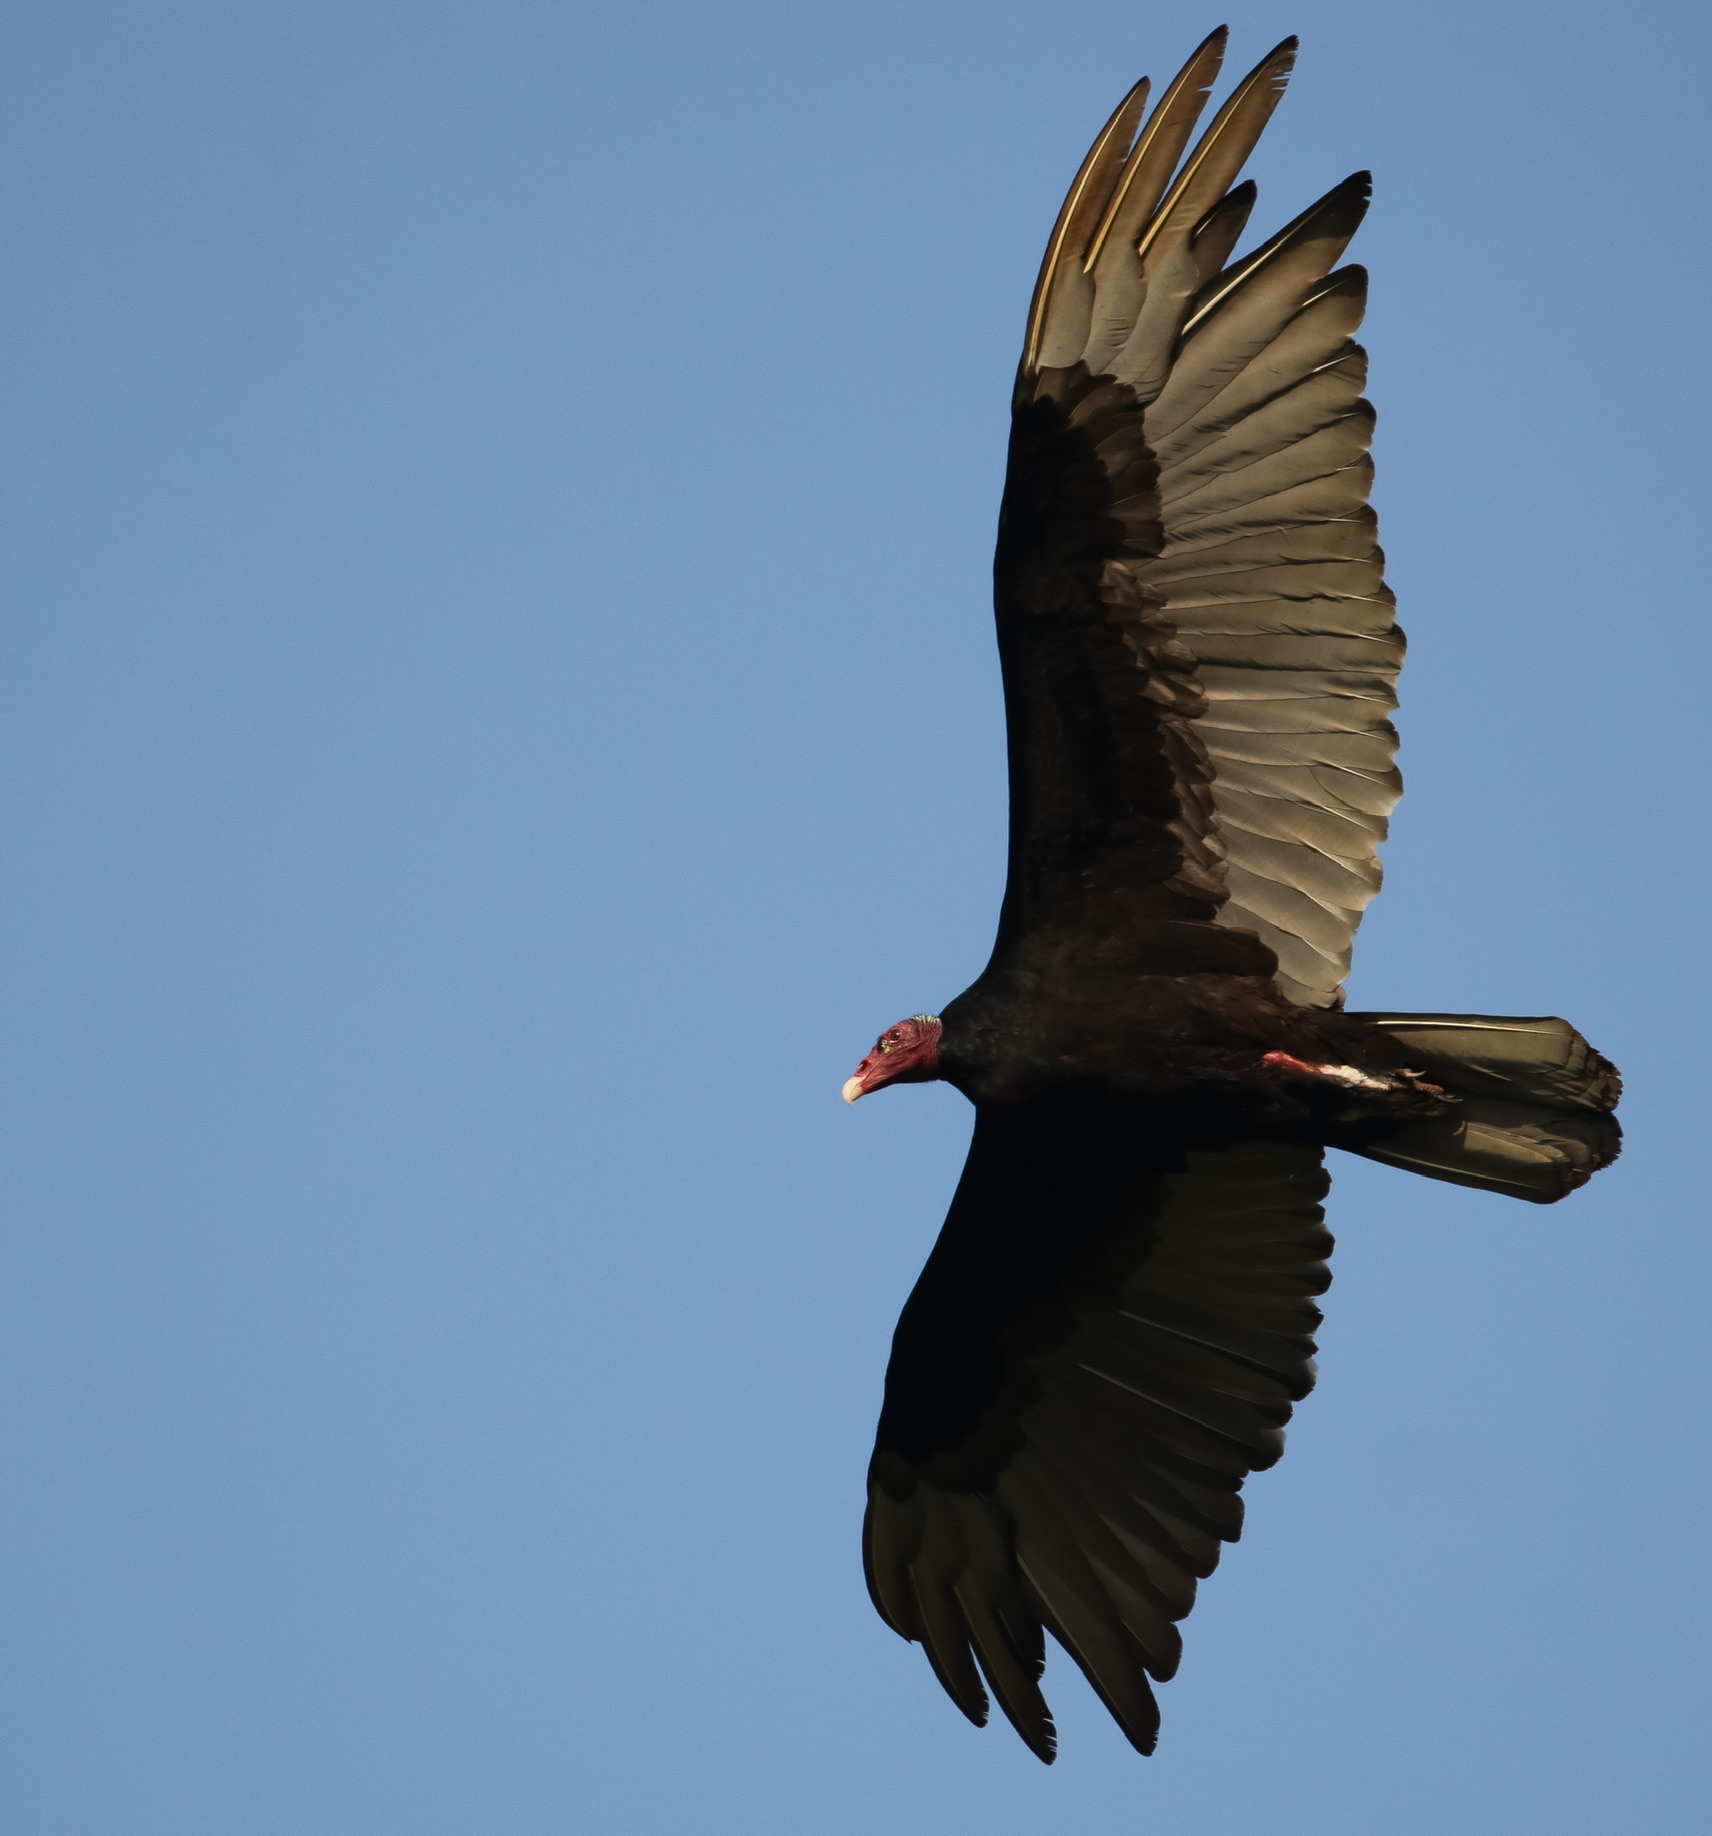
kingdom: Animalia
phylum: Chordata
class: Aves
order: Accipitriformes
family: Cathartidae
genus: Cathartes
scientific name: Cathartes aura
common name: Turkey vulture
